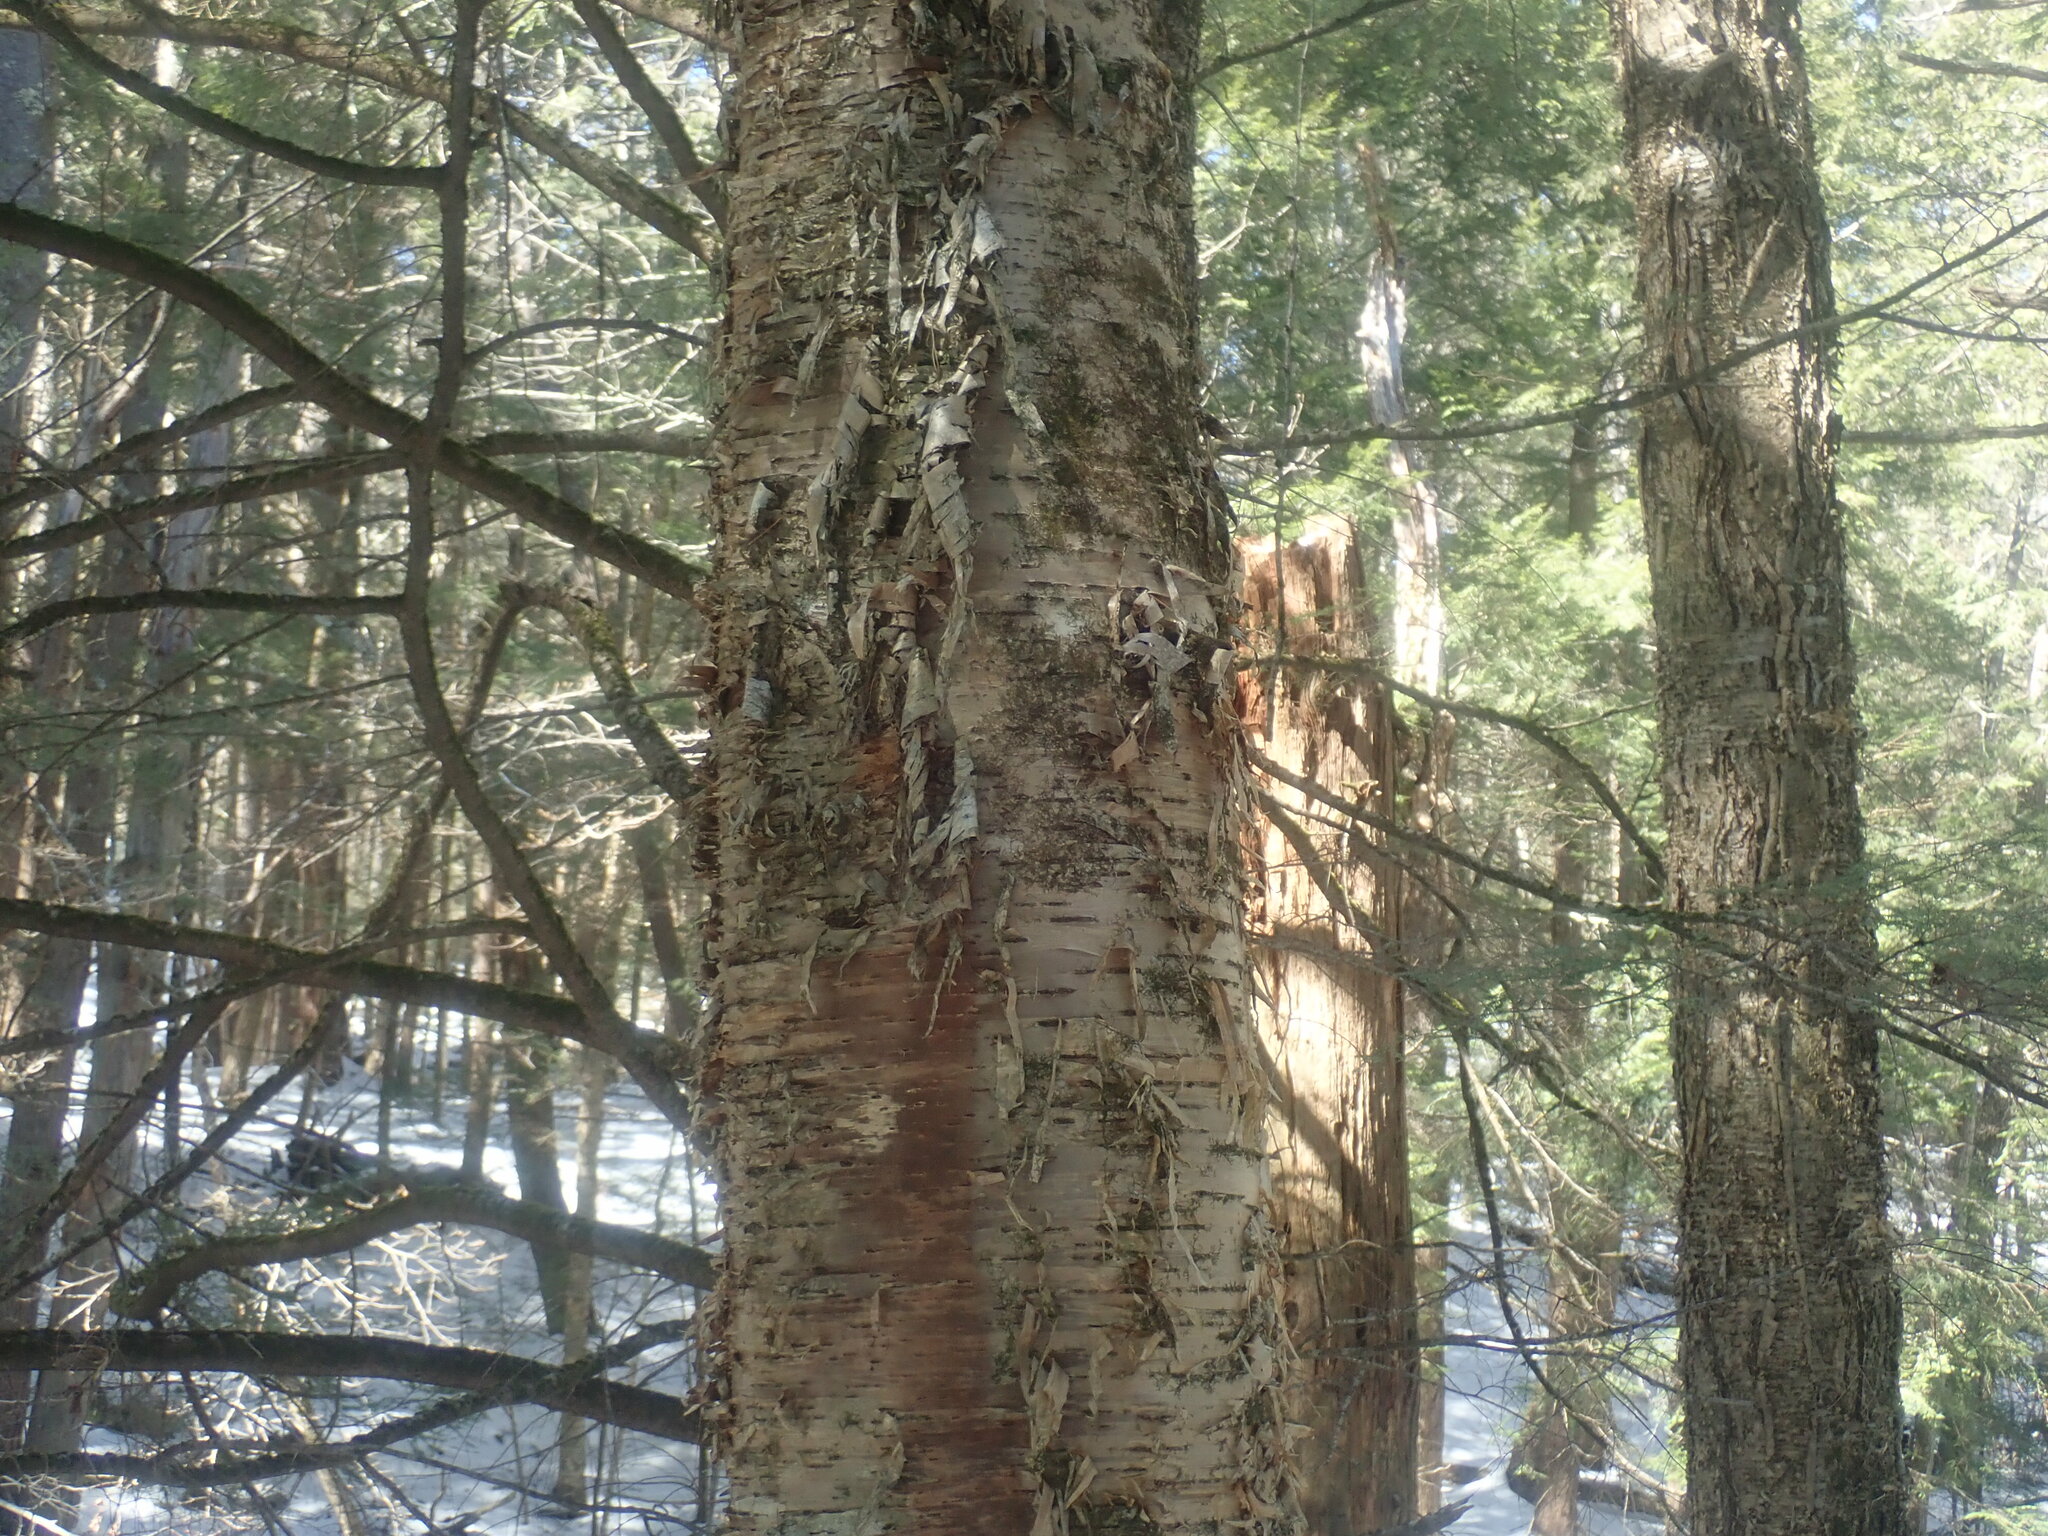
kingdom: Plantae
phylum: Tracheophyta
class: Magnoliopsida
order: Fagales
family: Betulaceae
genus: Betula
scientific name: Betula alleghaniensis
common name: Yellow birch
